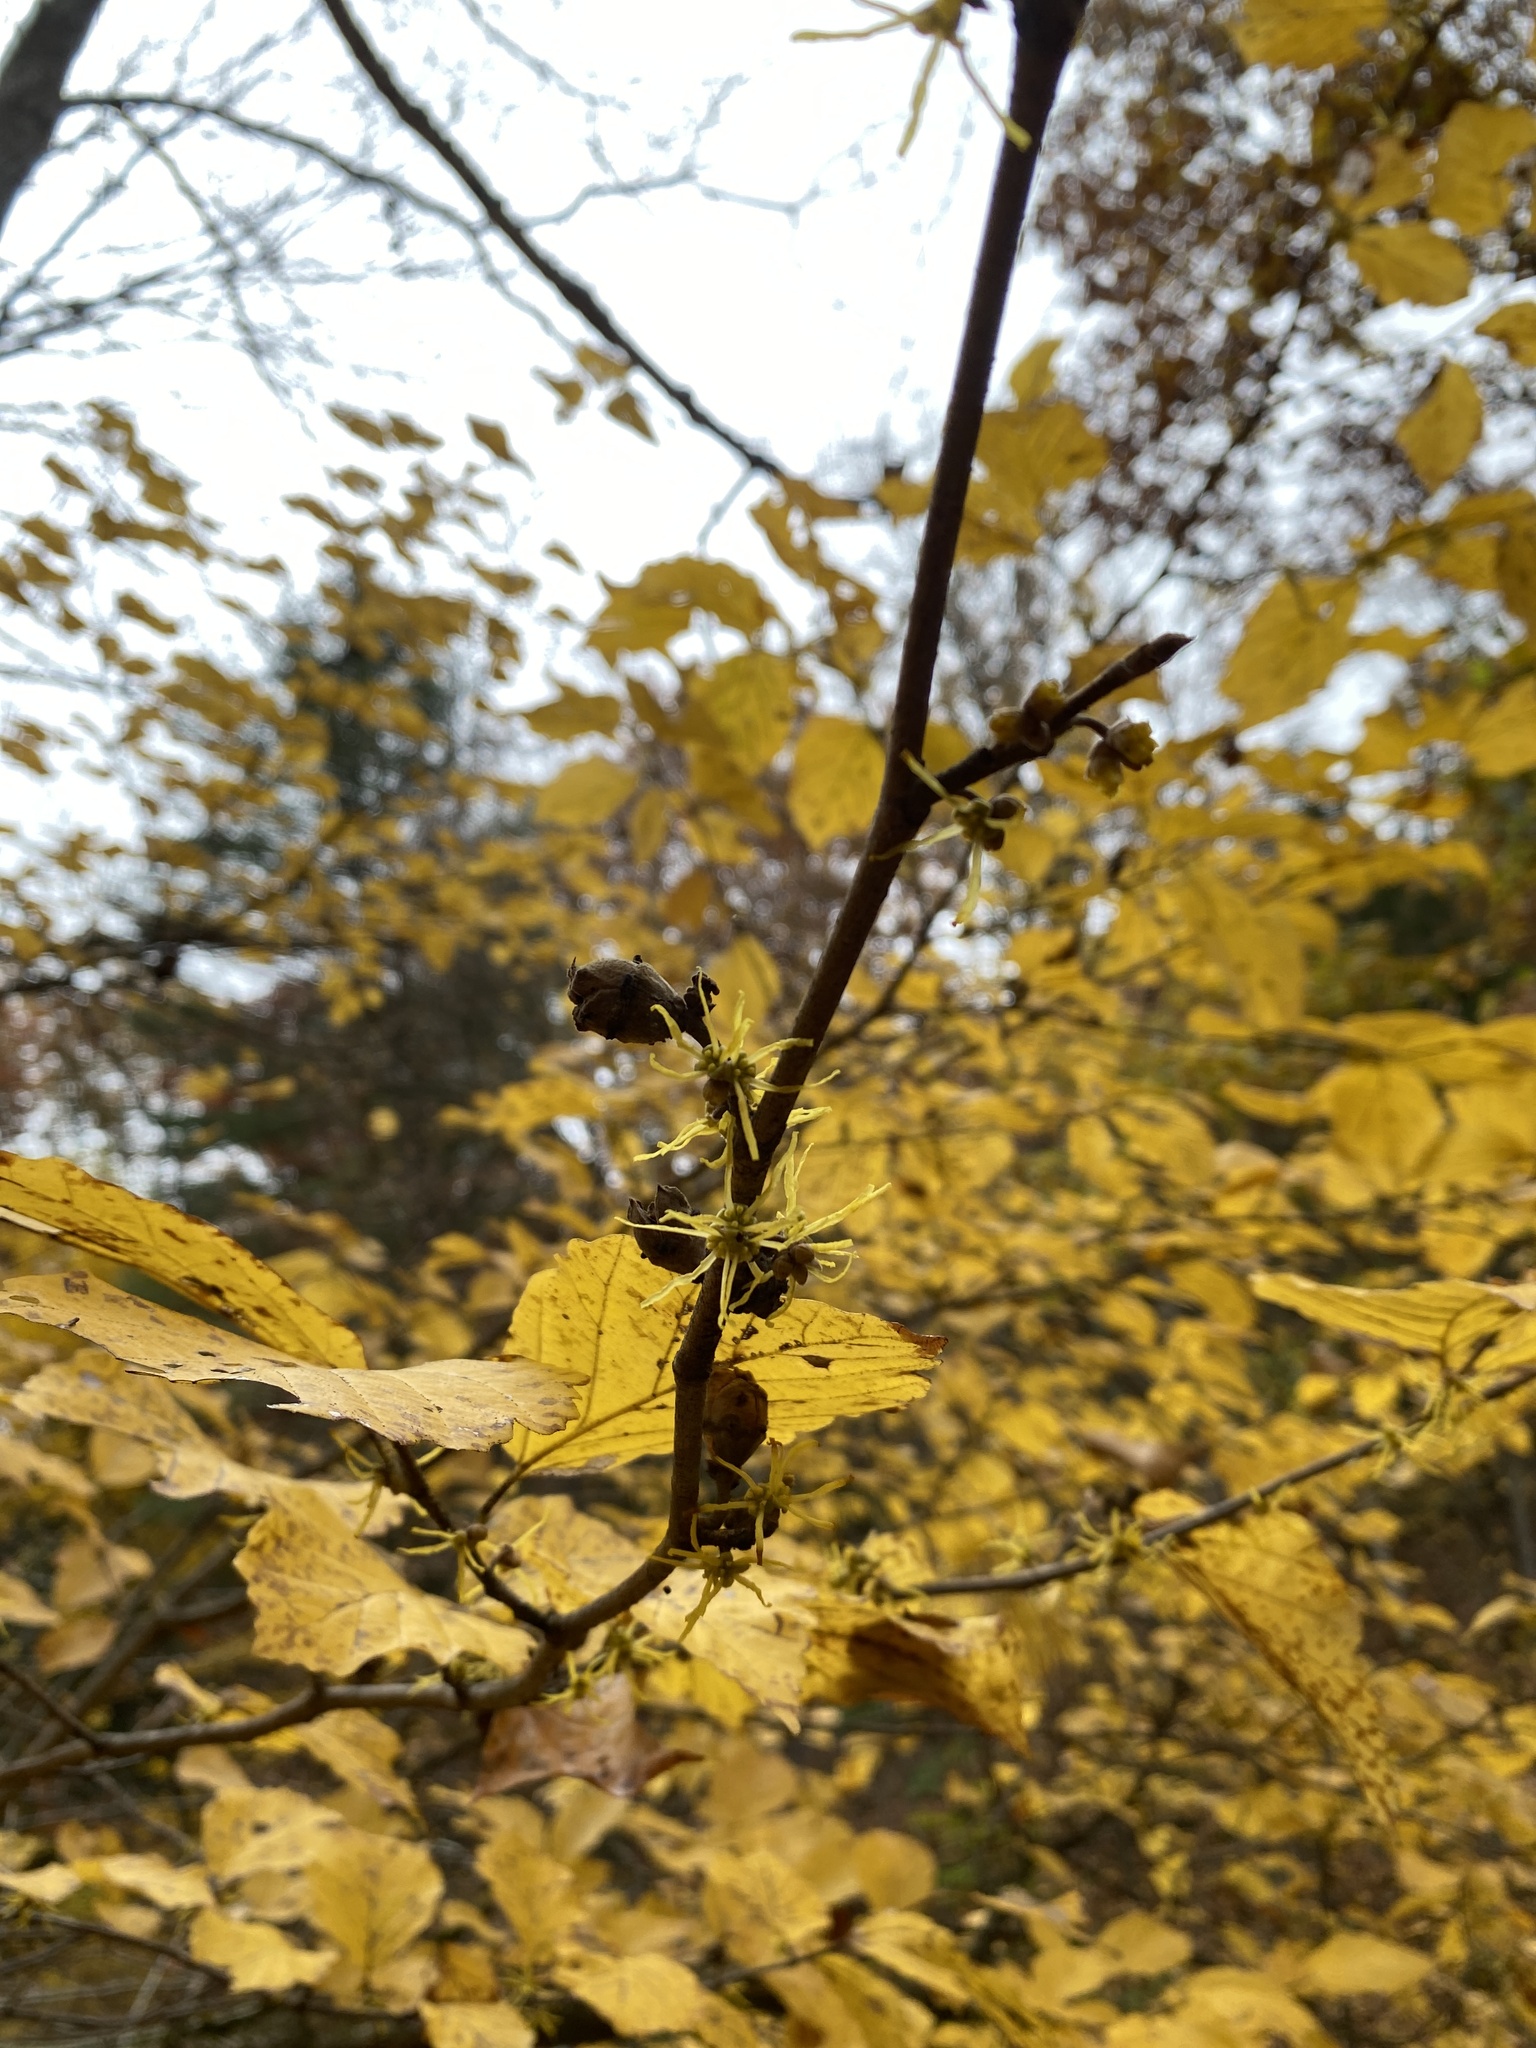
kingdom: Plantae
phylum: Tracheophyta
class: Magnoliopsida
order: Saxifragales
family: Hamamelidaceae
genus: Hamamelis
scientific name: Hamamelis virginiana
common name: Witch-hazel
